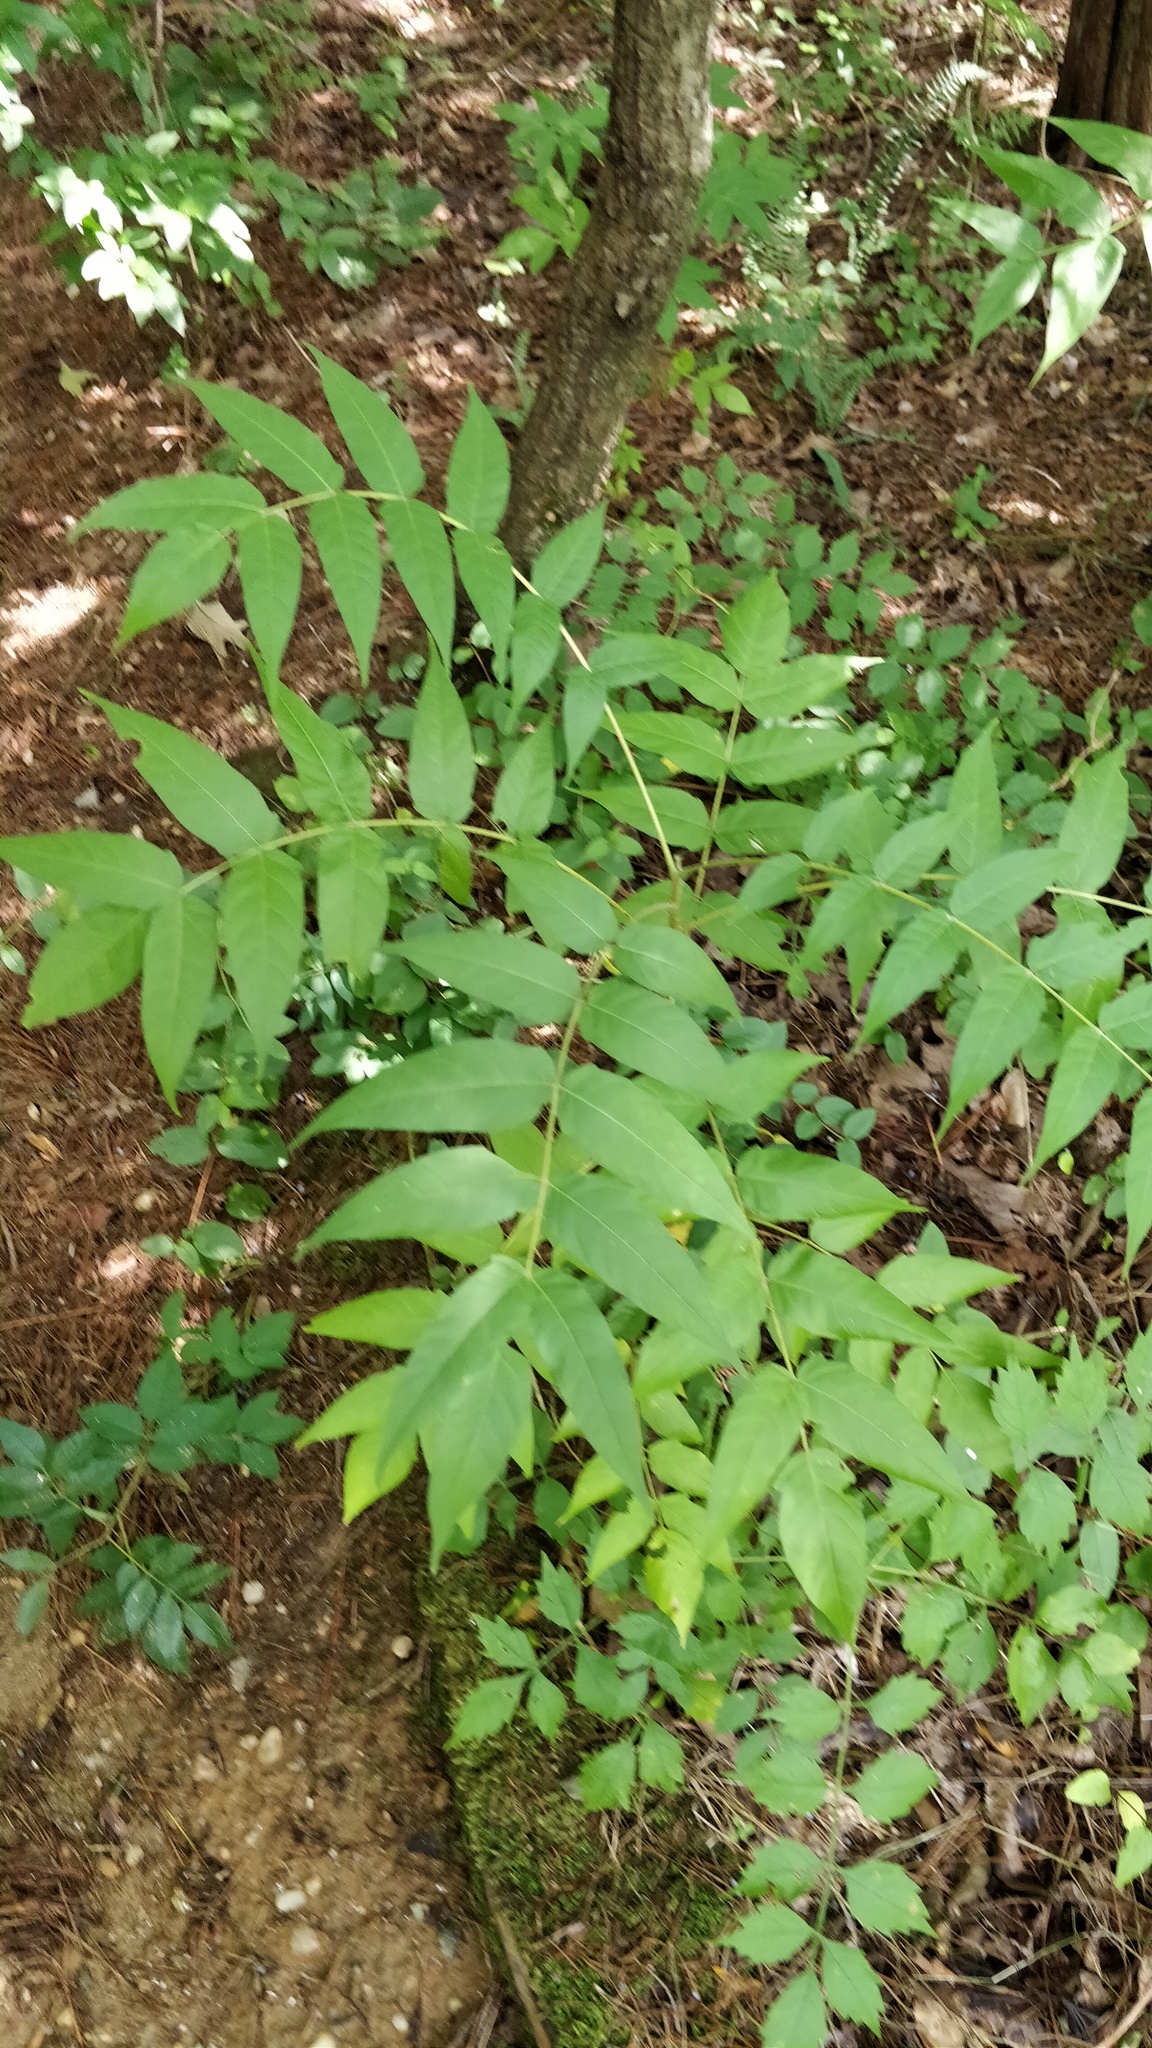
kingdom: Plantae
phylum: Tracheophyta
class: Magnoliopsida
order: Sapindales
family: Simaroubaceae
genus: Ailanthus
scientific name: Ailanthus altissima
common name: Tree-of-heaven
